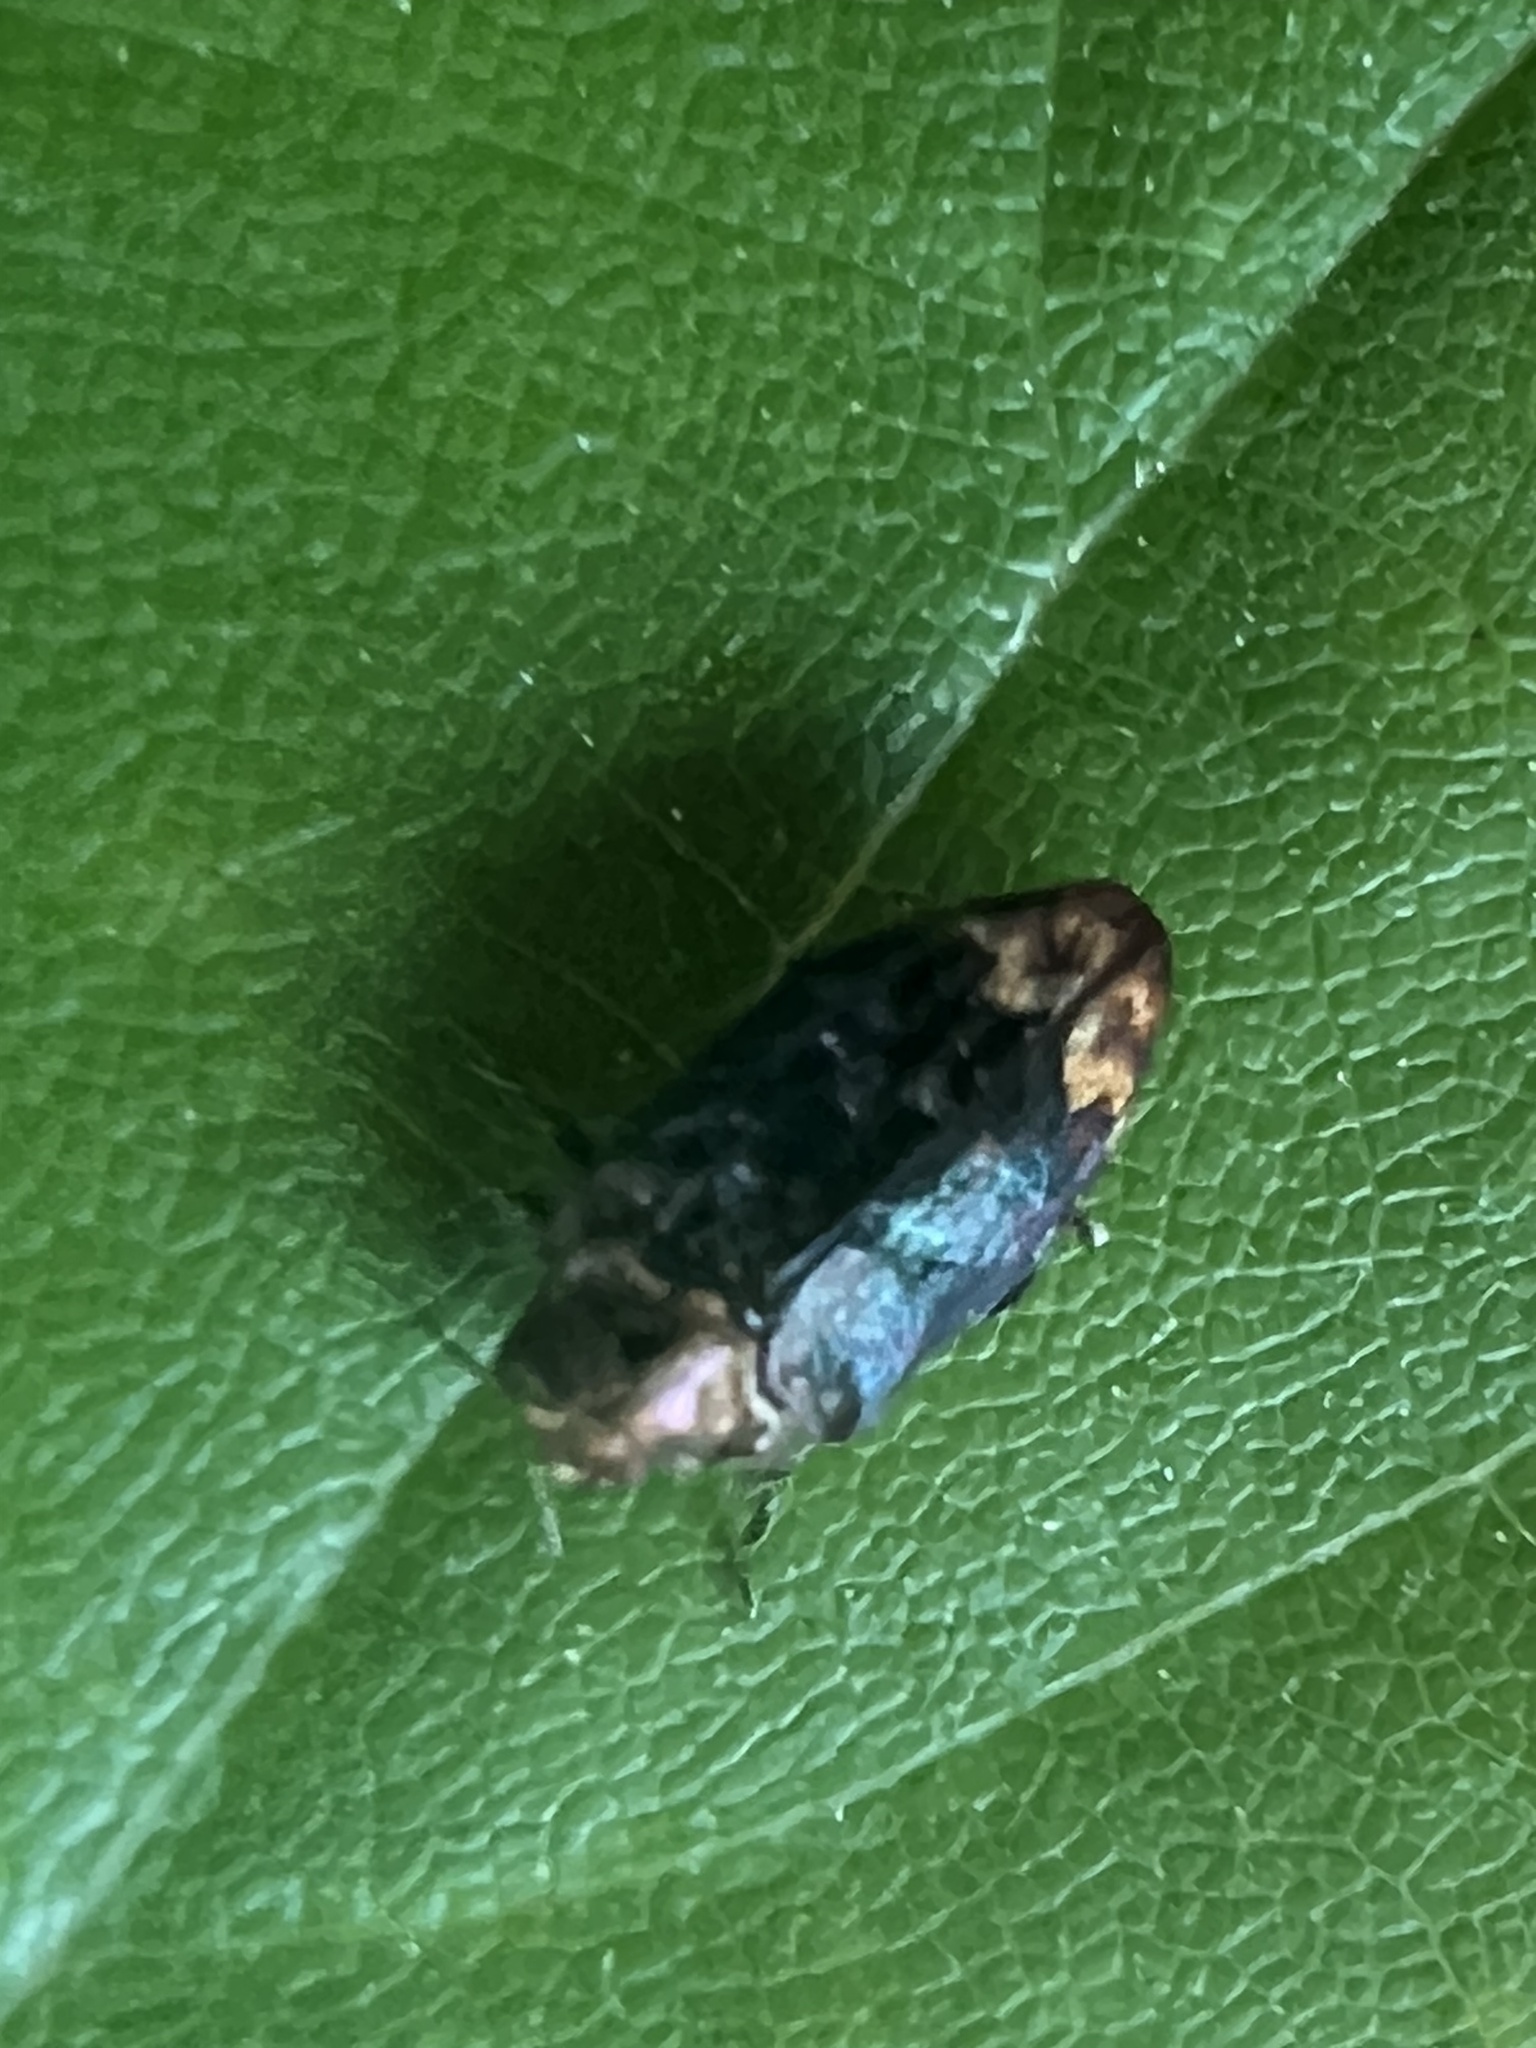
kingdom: Animalia
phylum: Arthropoda
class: Insecta
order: Coleoptera
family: Buprestidae
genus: Brachys
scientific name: Brachys aerosus
